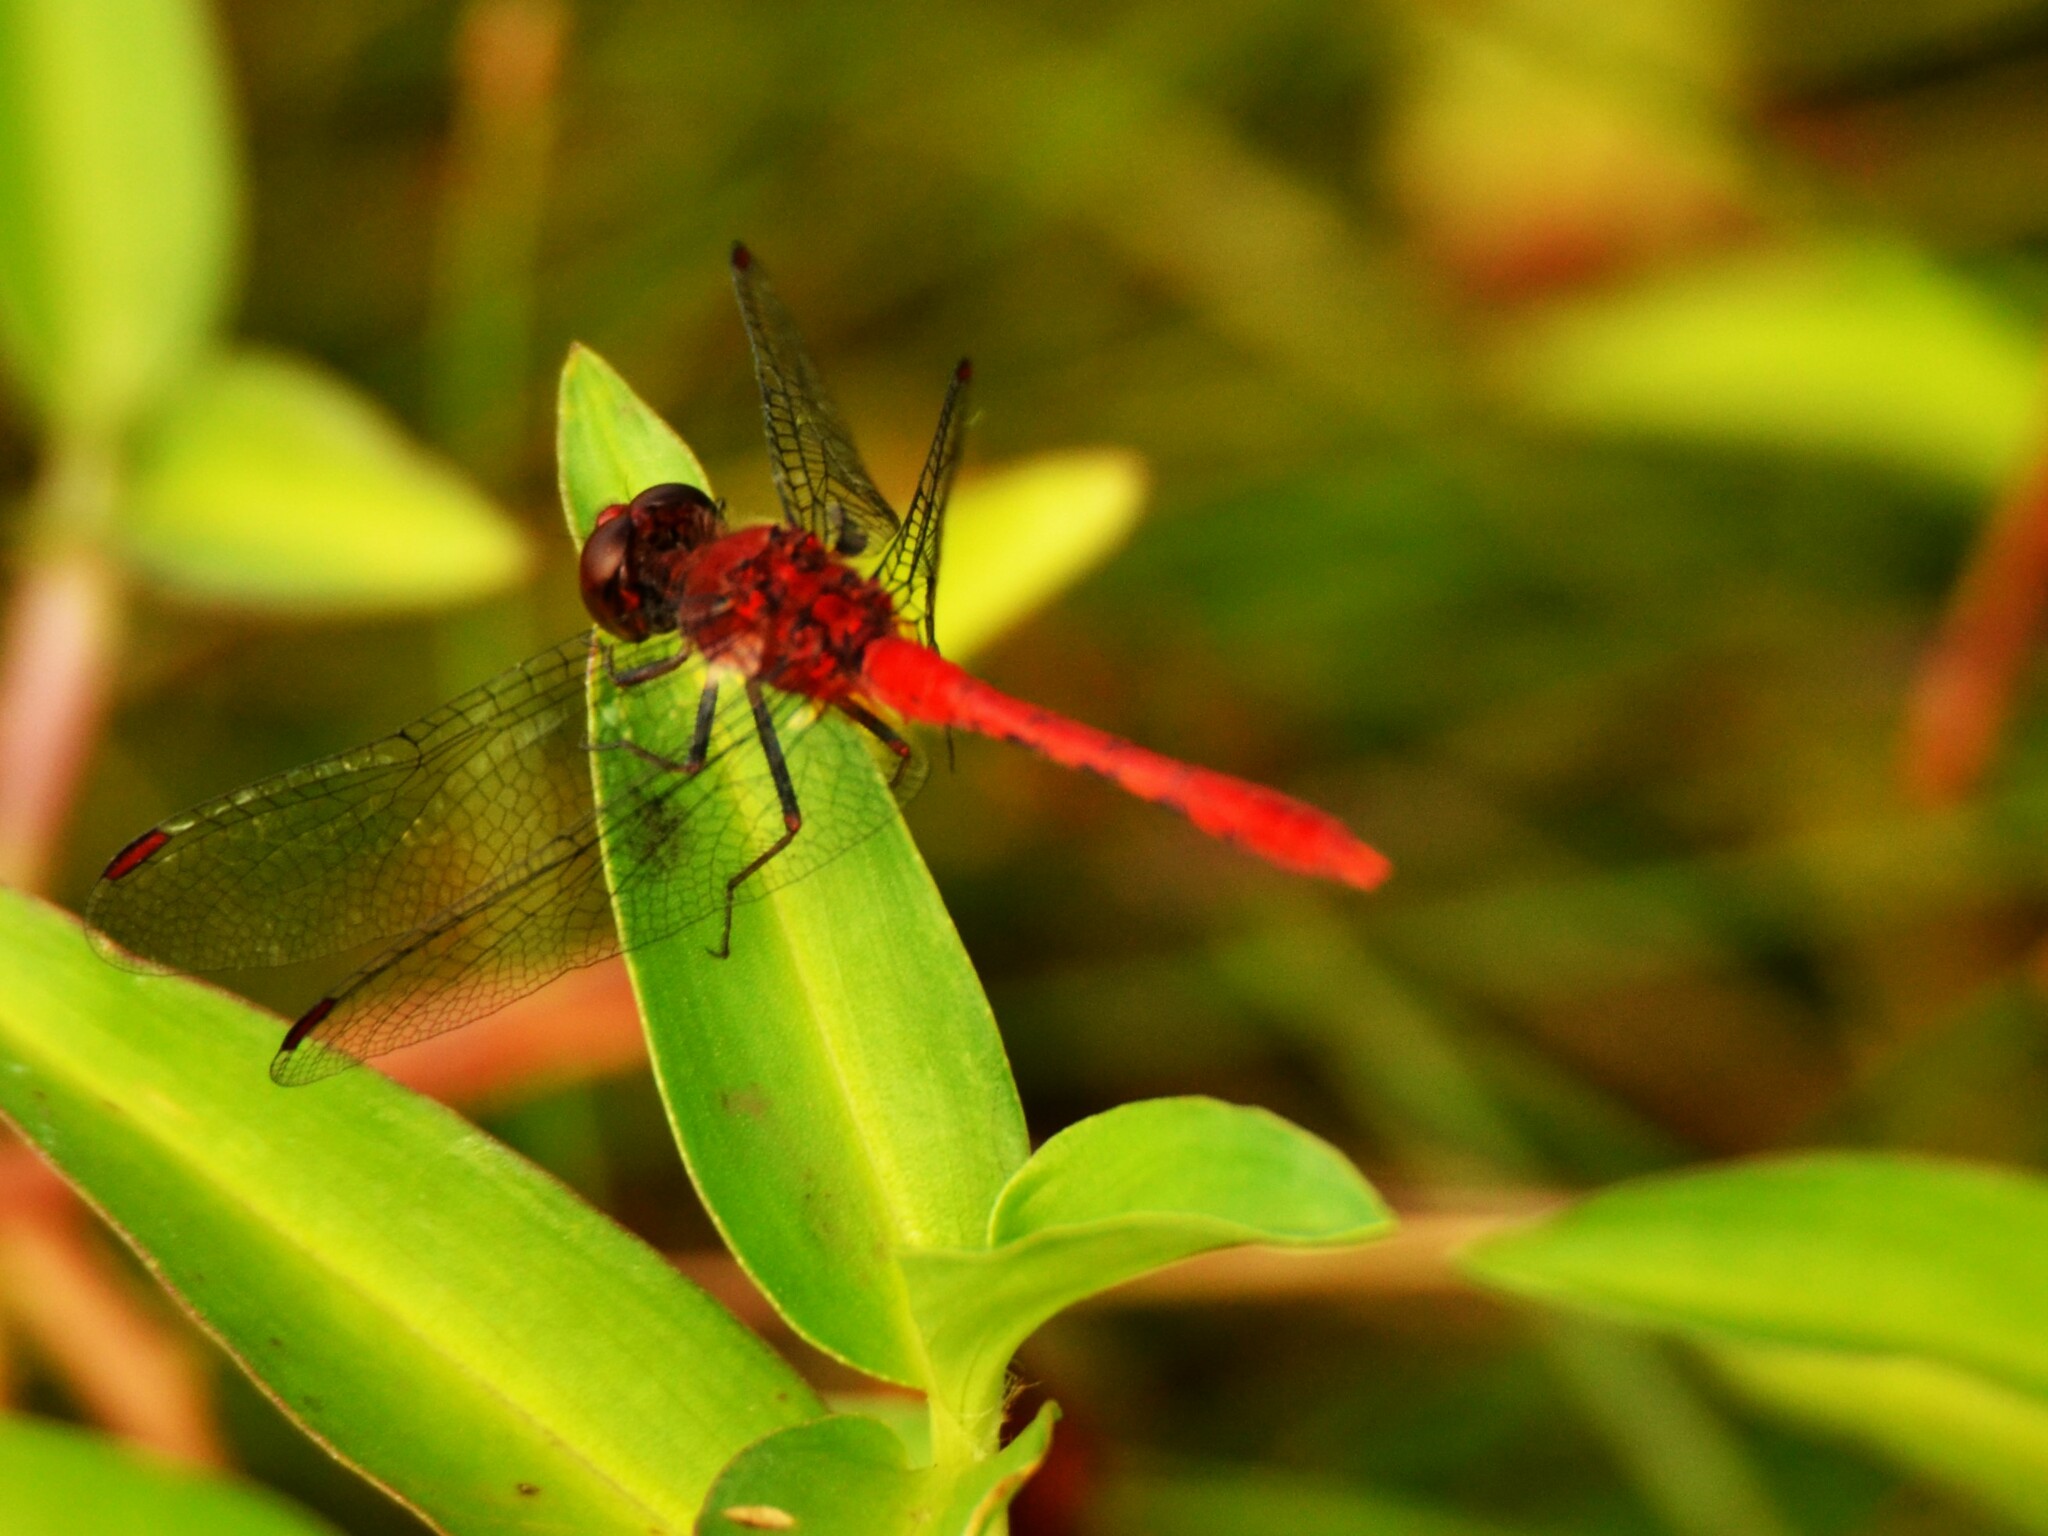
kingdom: Animalia
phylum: Arthropoda
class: Insecta
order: Odonata
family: Libellulidae
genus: Diplacodes
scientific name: Diplacodes bipunctata
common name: Red percher dragonfly
